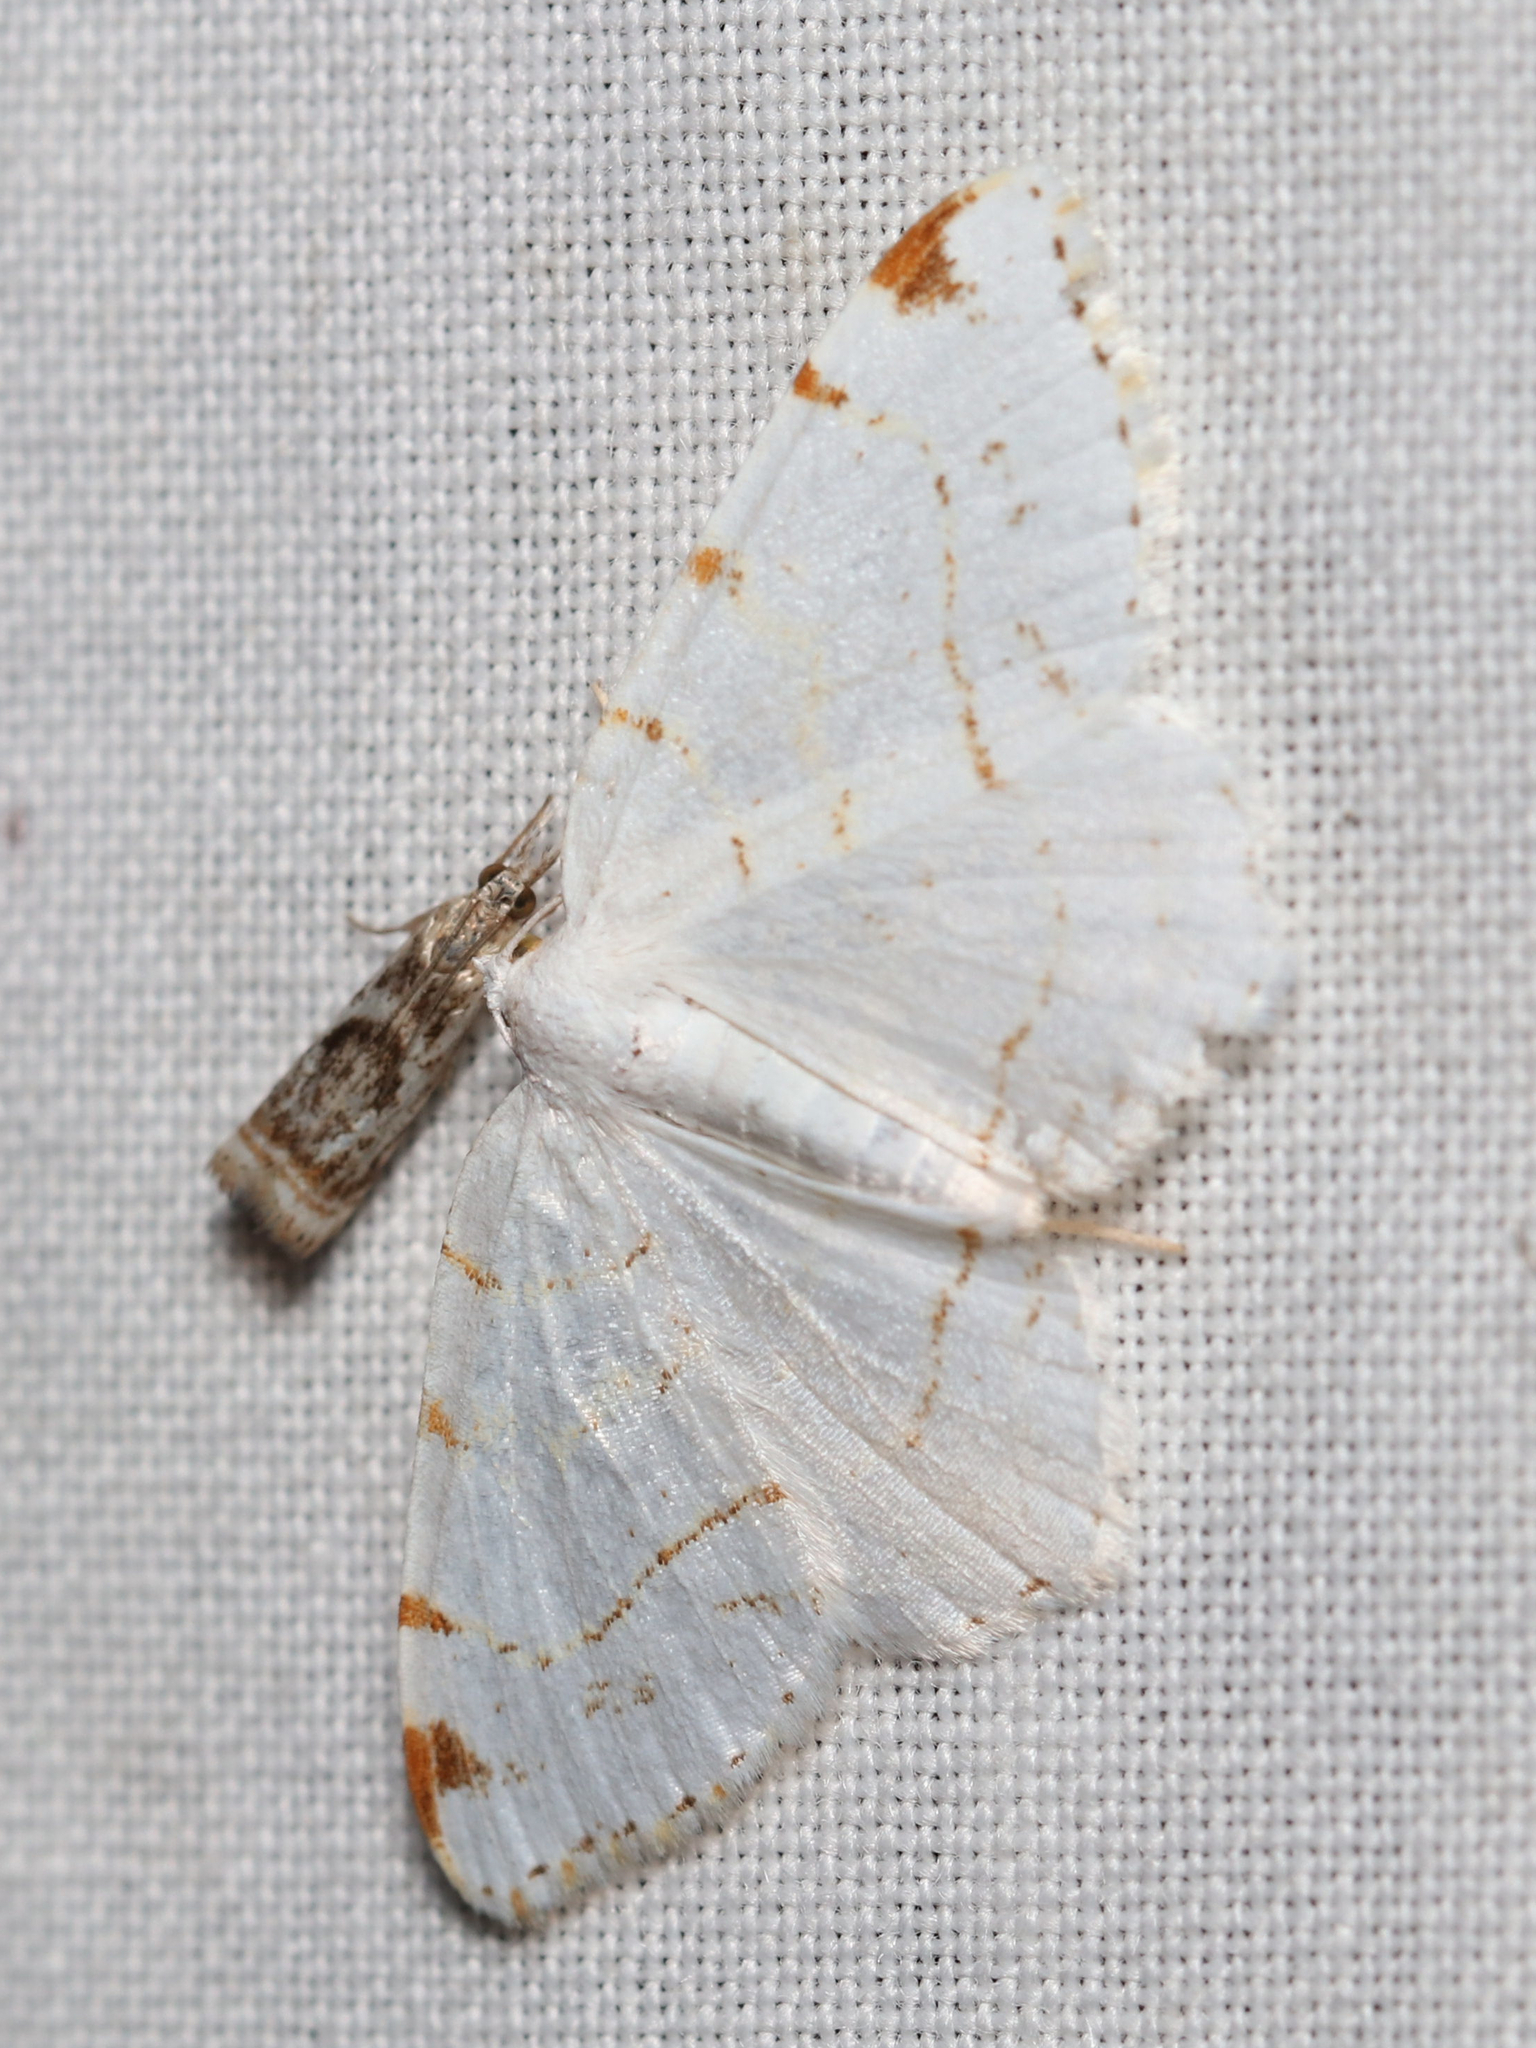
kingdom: Animalia
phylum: Arthropoda
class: Insecta
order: Lepidoptera
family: Geometridae
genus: Macaria
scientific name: Macaria pustularia
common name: Lesser maple spanworm moth
